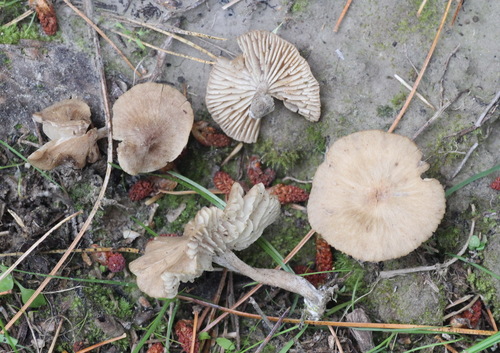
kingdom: Fungi
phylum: Basidiomycota
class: Agaricomycetes
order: Agaricales
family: Callistosporiaceae
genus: Pseudolaccaria
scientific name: Pseudolaccaria pachyphylla
